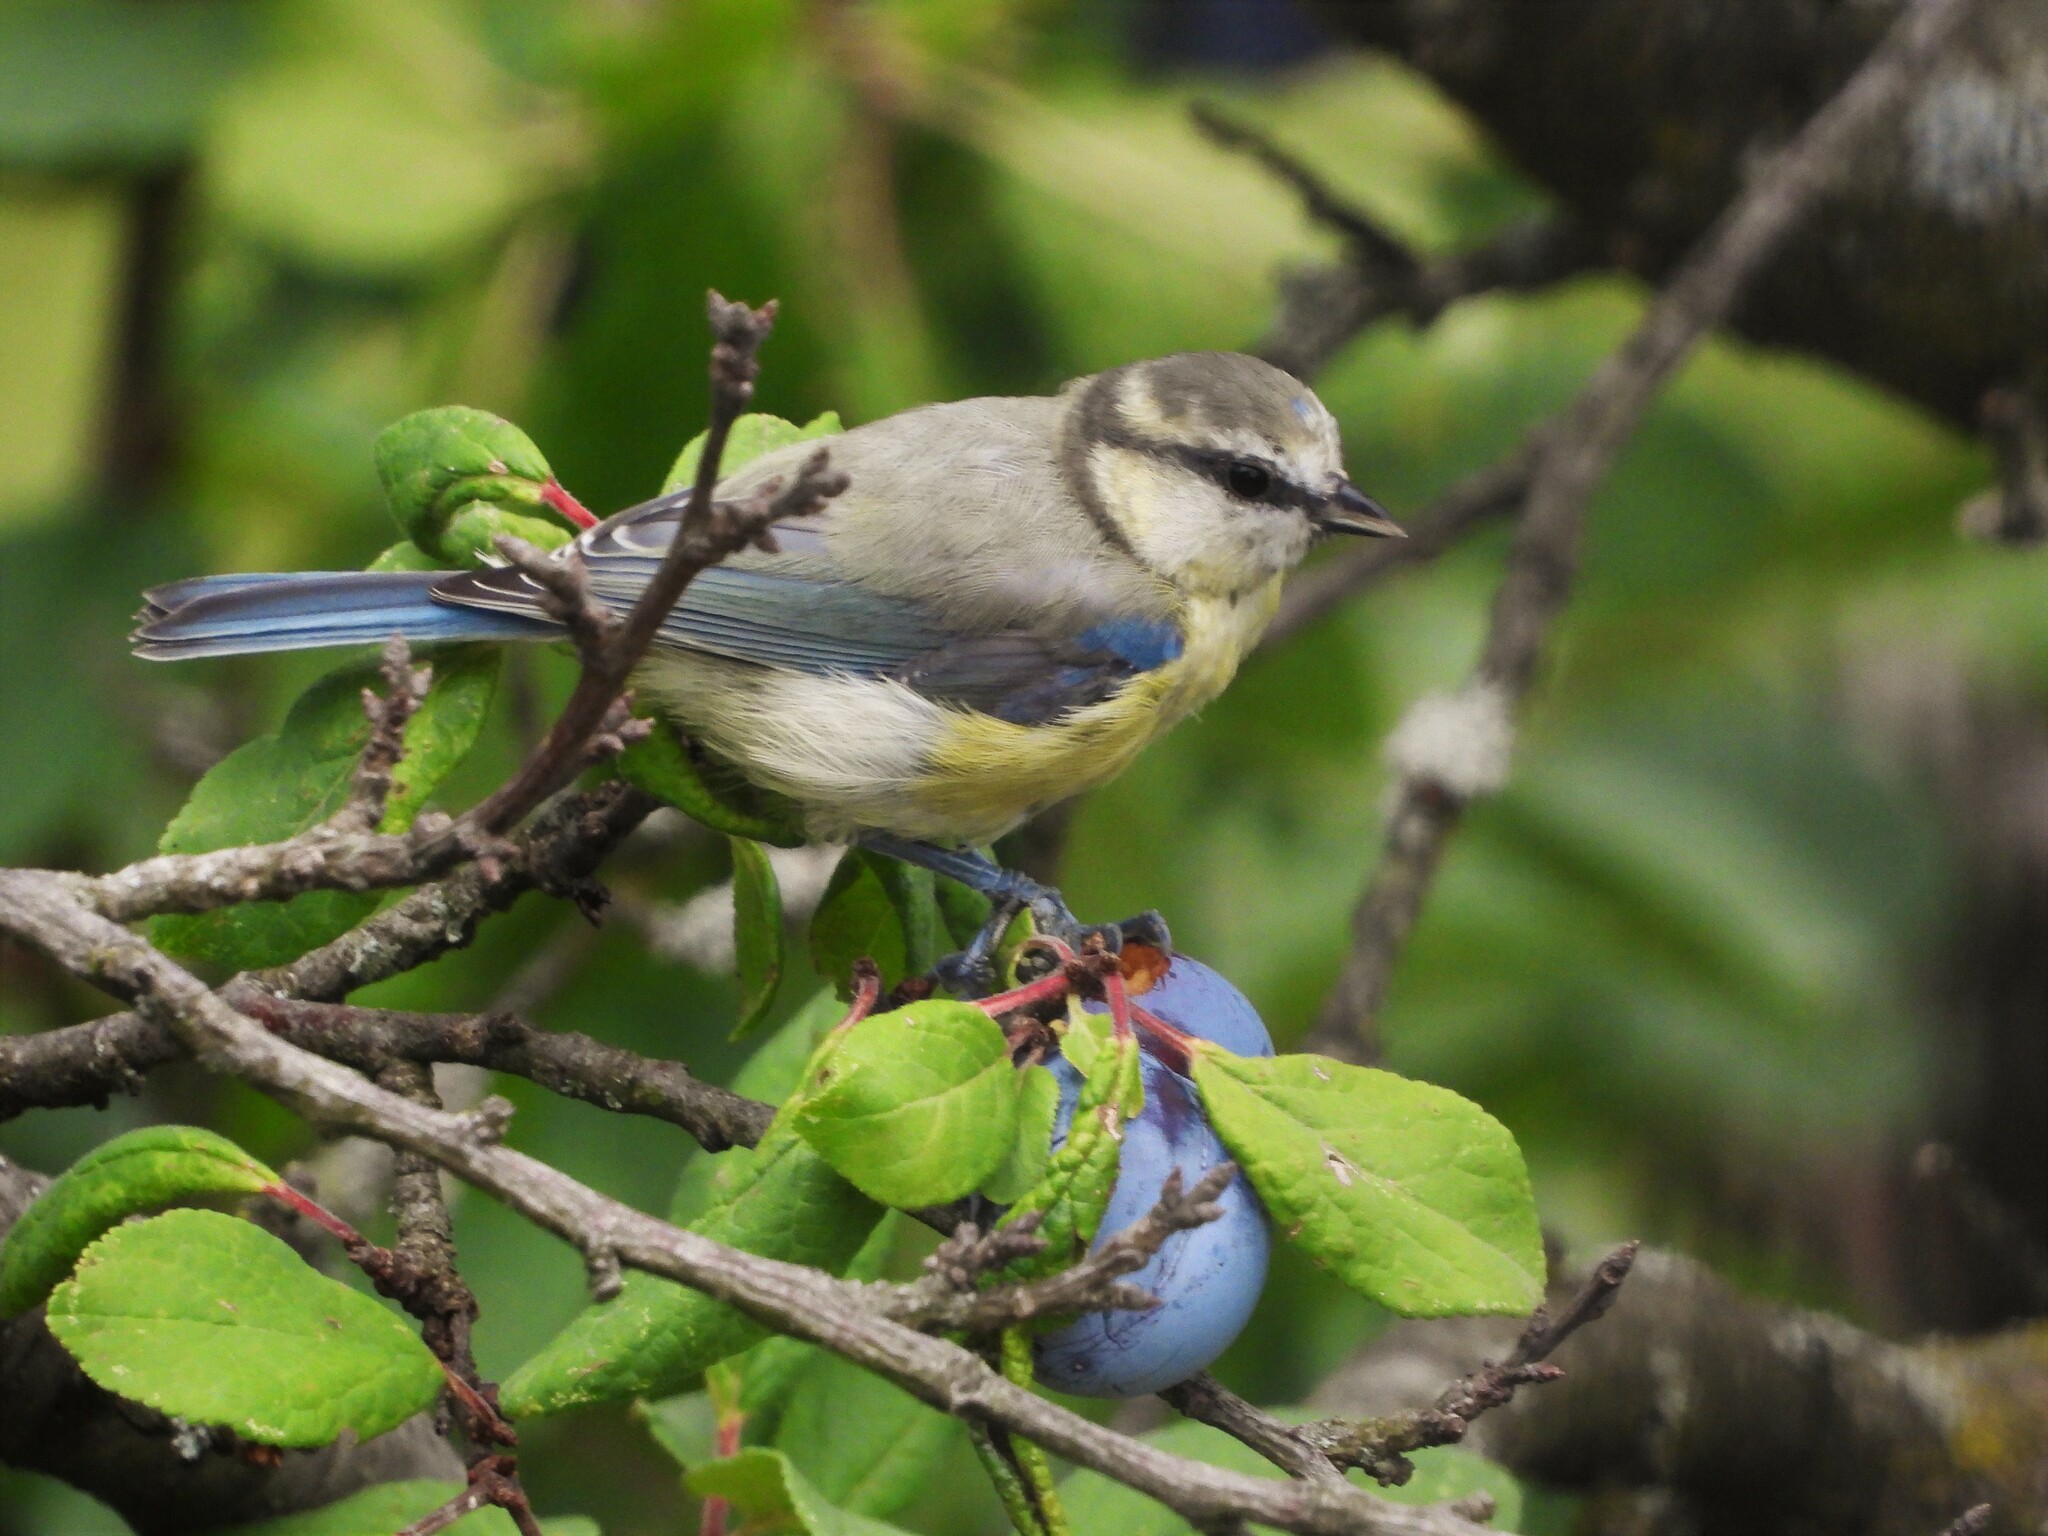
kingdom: Animalia
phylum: Chordata
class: Aves
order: Passeriformes
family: Paridae
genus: Cyanistes
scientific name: Cyanistes caeruleus
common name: Eurasian blue tit
